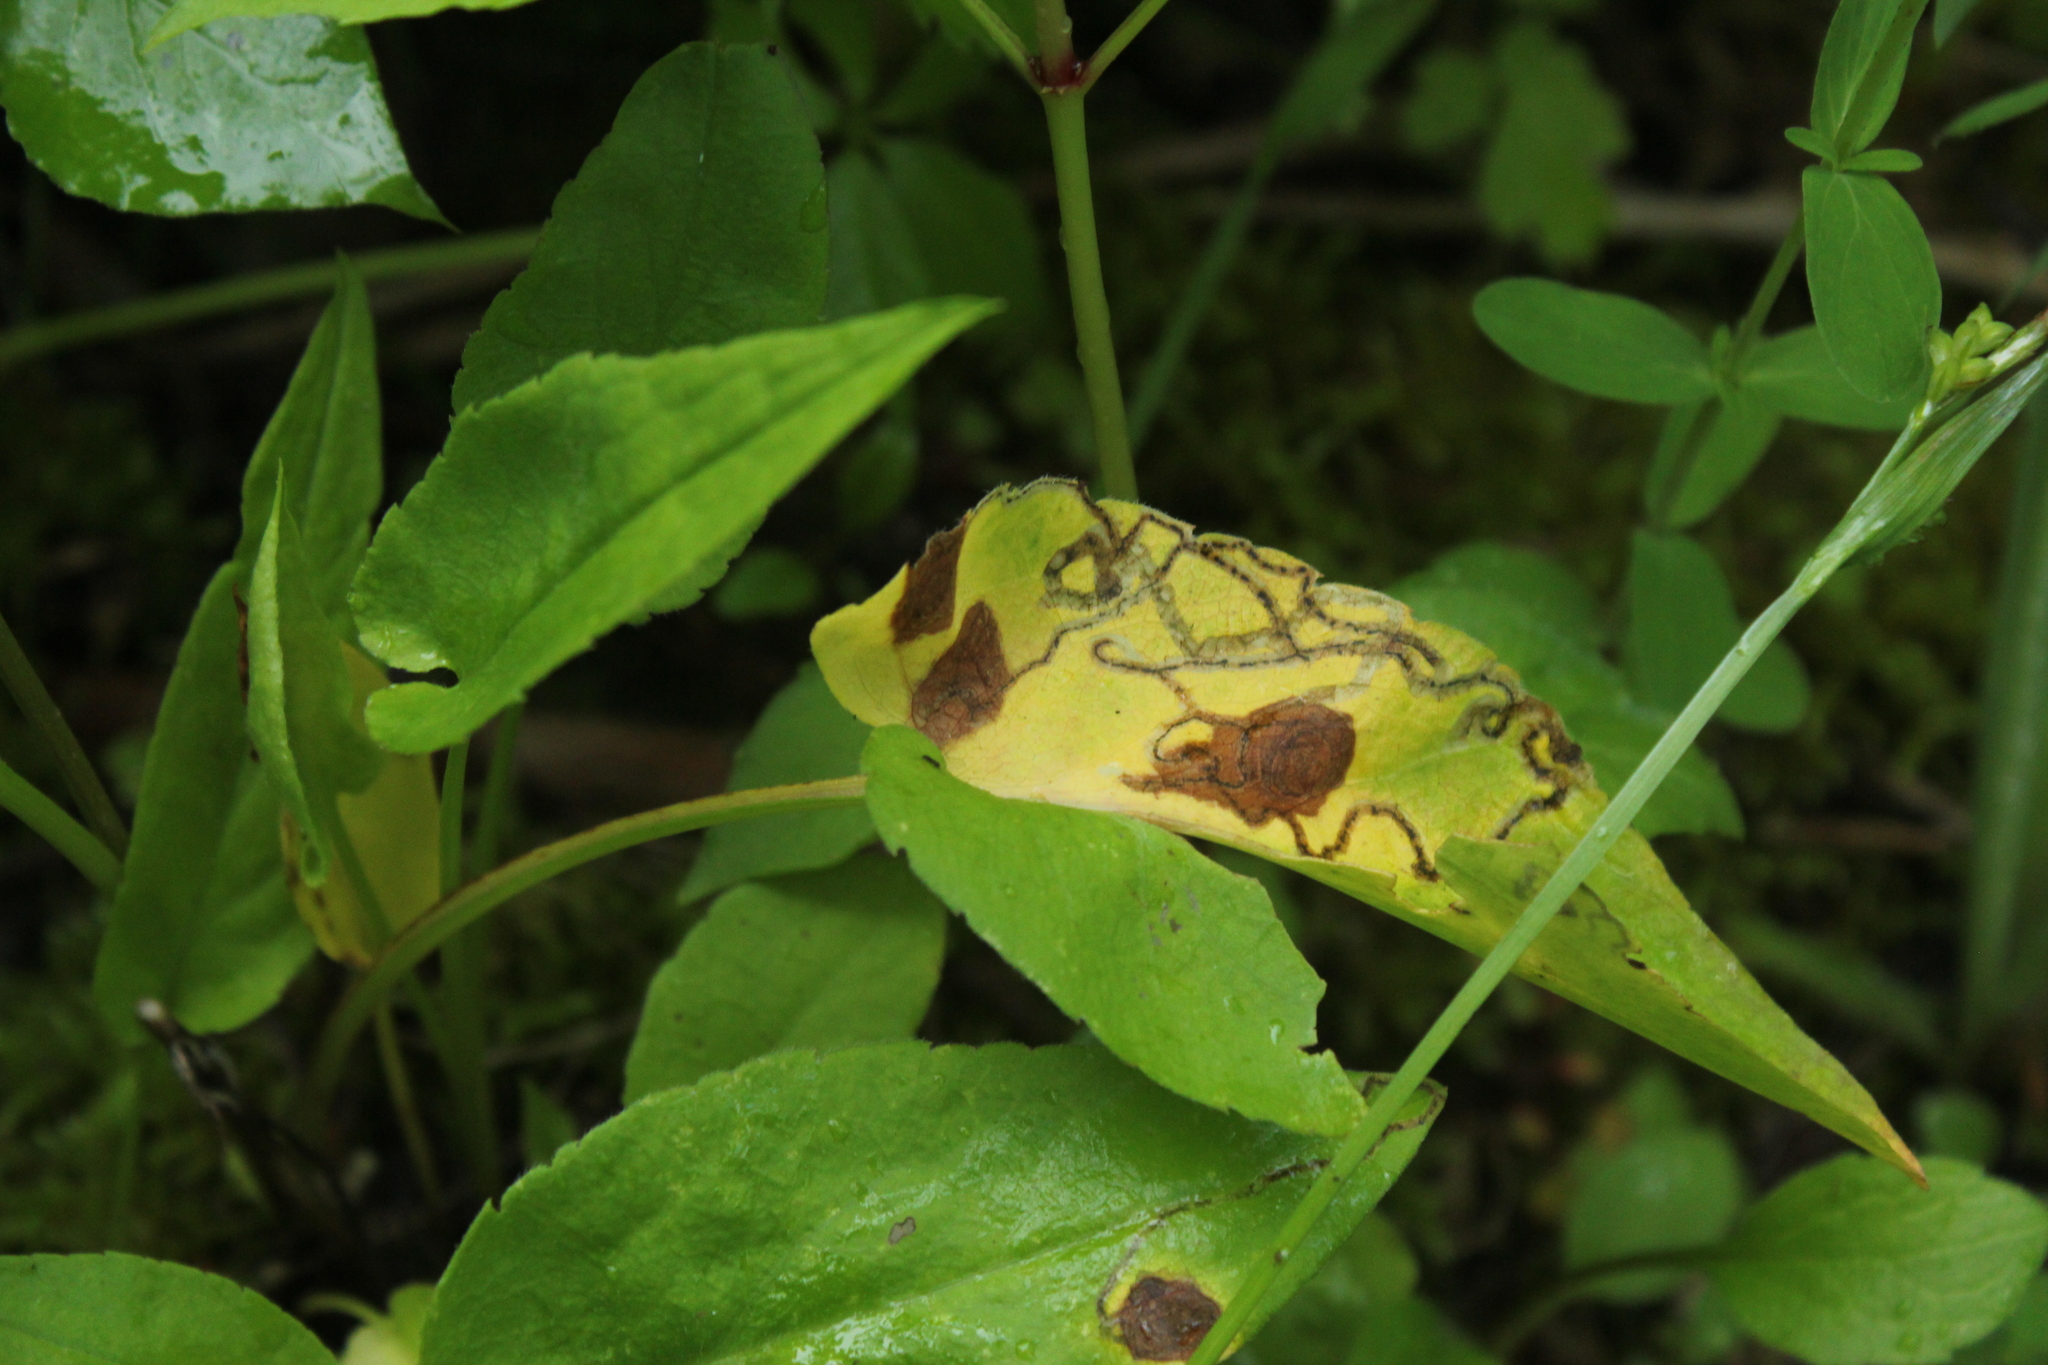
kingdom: Animalia
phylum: Arthropoda
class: Insecta
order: Diptera
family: Agromyzidae
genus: Liriomyza
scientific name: Liriomyza eupatorii
